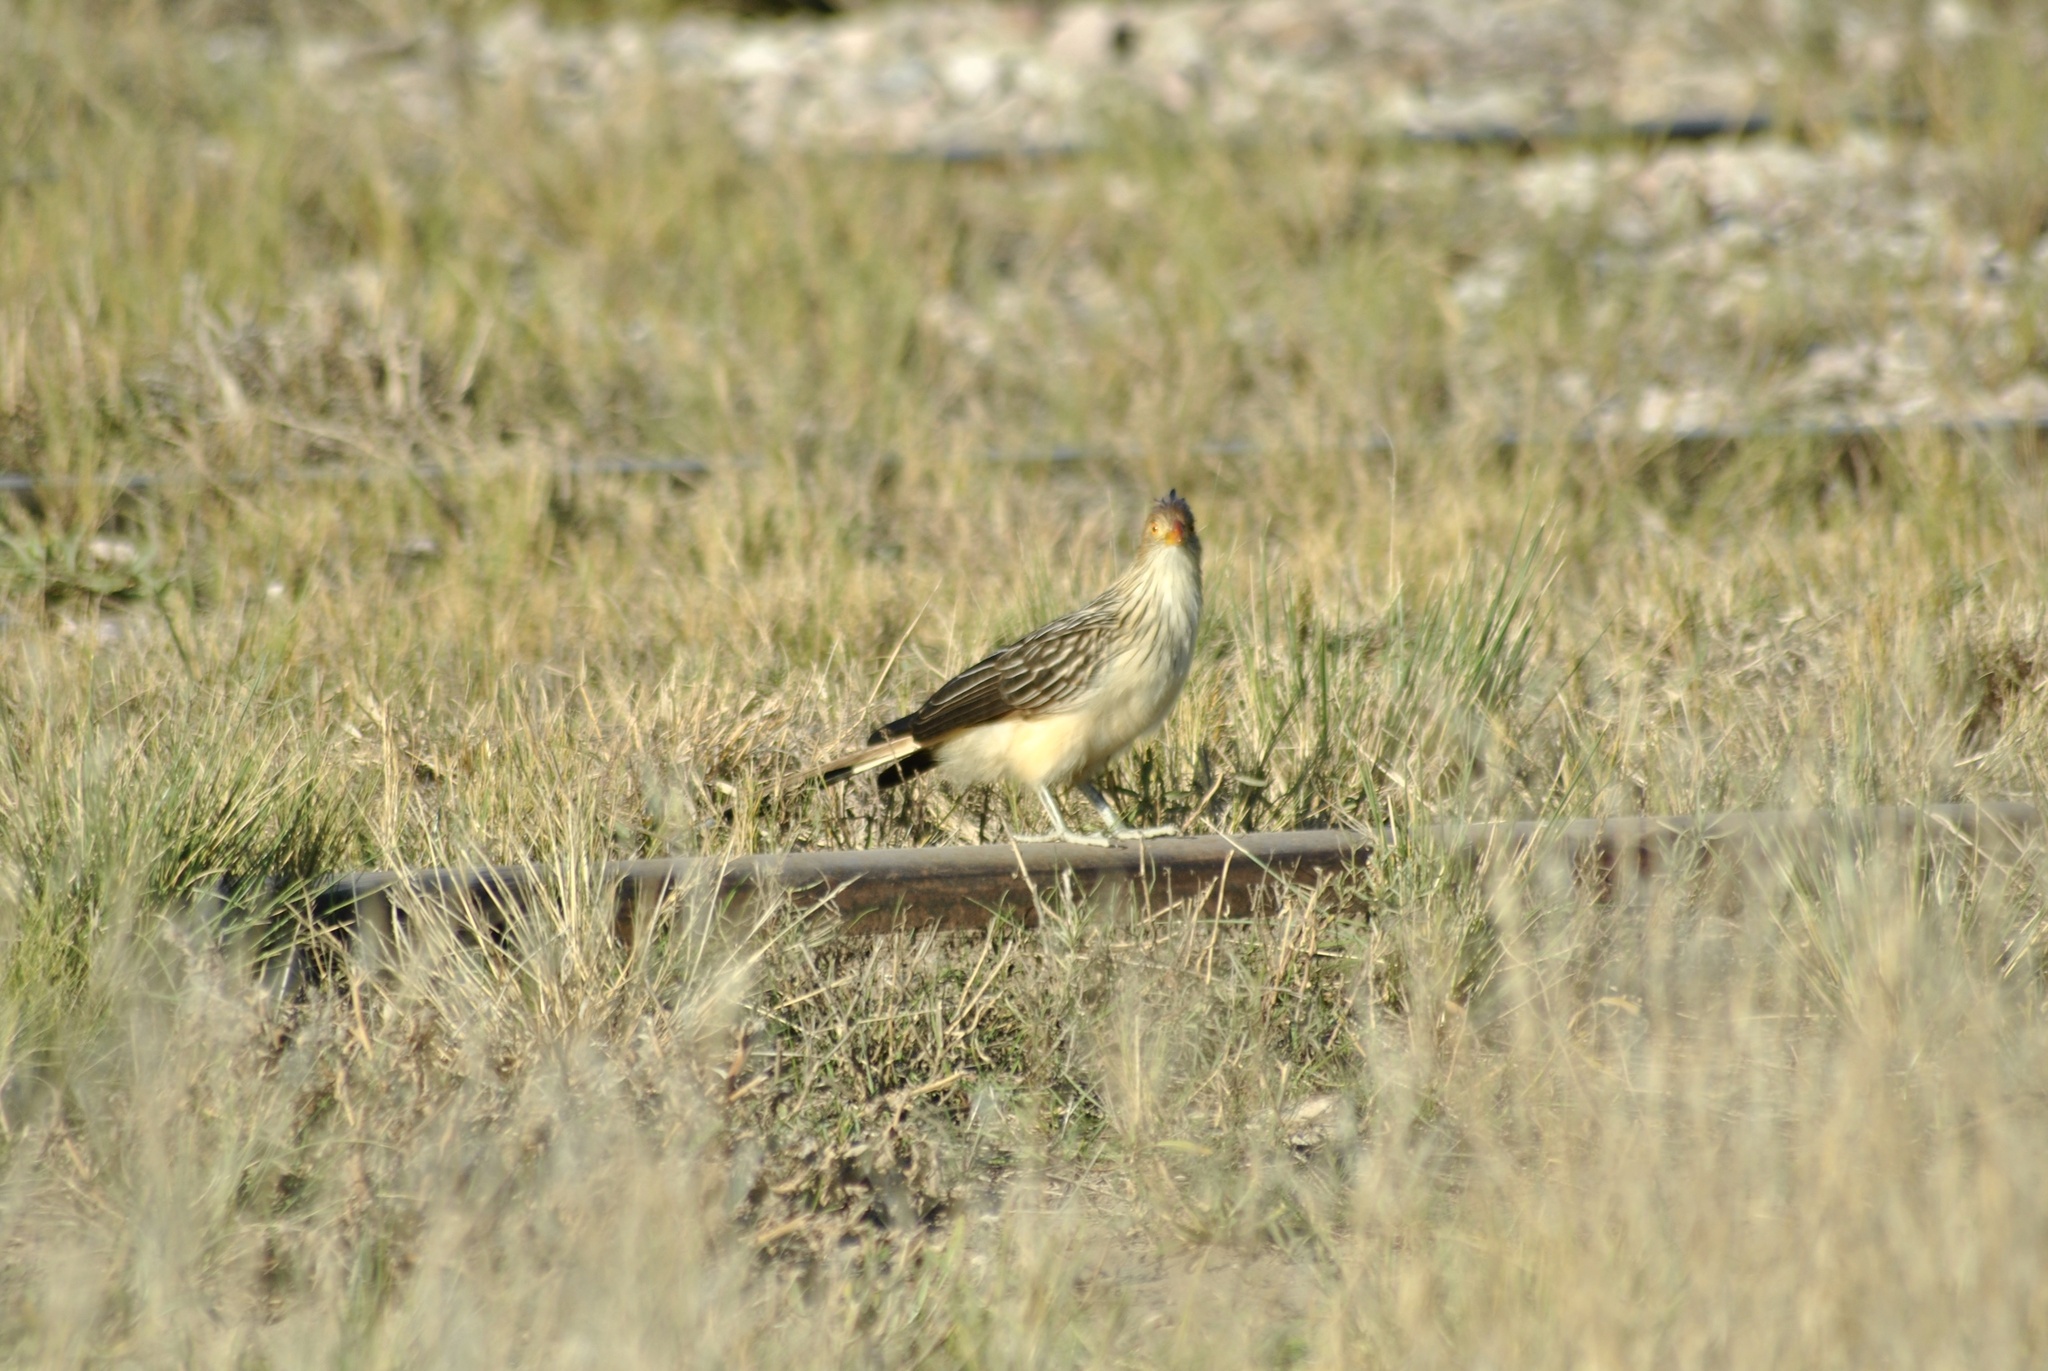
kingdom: Animalia
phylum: Chordata
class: Aves
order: Cuculiformes
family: Cuculidae
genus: Guira
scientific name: Guira guira
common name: Guira cuckoo
